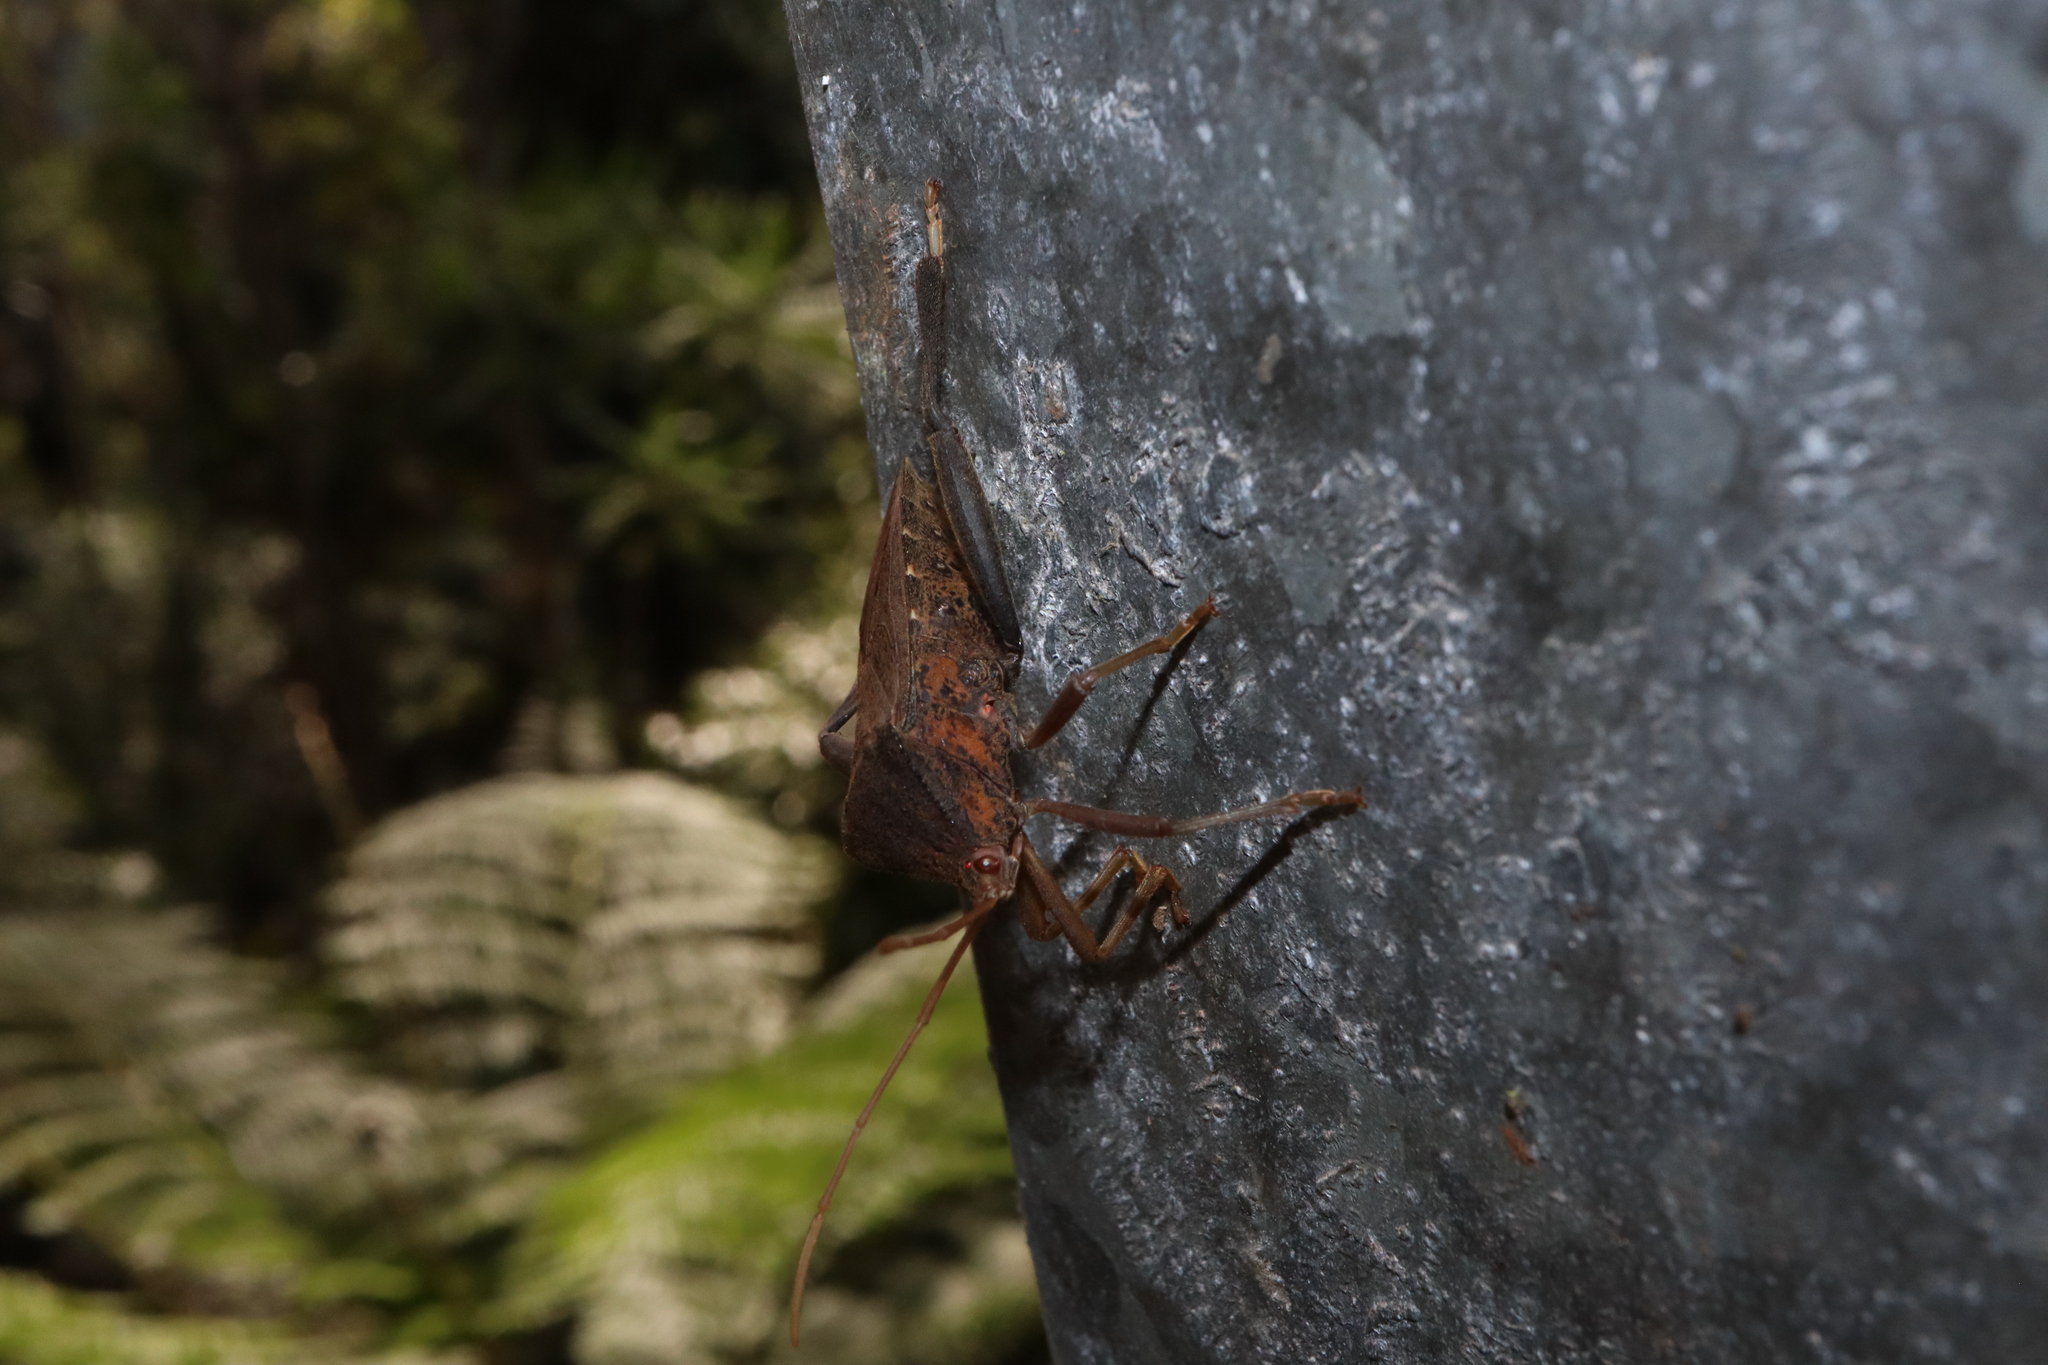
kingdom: Animalia
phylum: Arthropoda
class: Insecta
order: Hemiptera
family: Coreidae
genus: Pternistria
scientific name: Pternistria bispina
